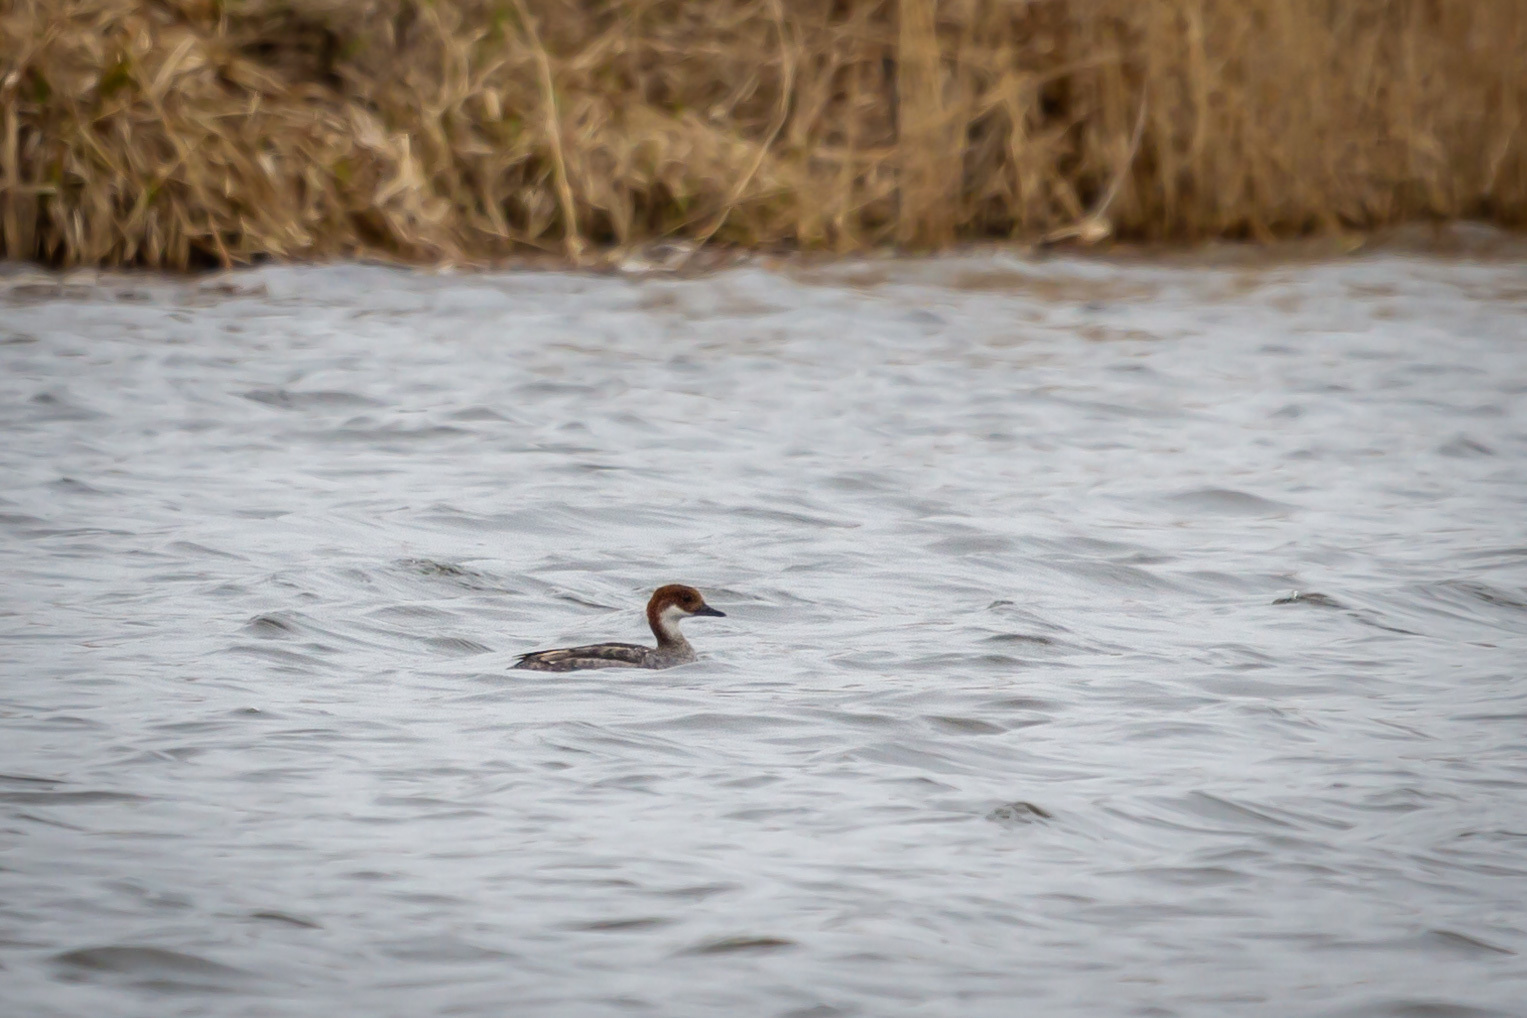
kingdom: Animalia
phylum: Chordata
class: Aves
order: Anseriformes
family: Anatidae
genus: Mergellus
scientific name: Mergellus albellus
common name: Smew
